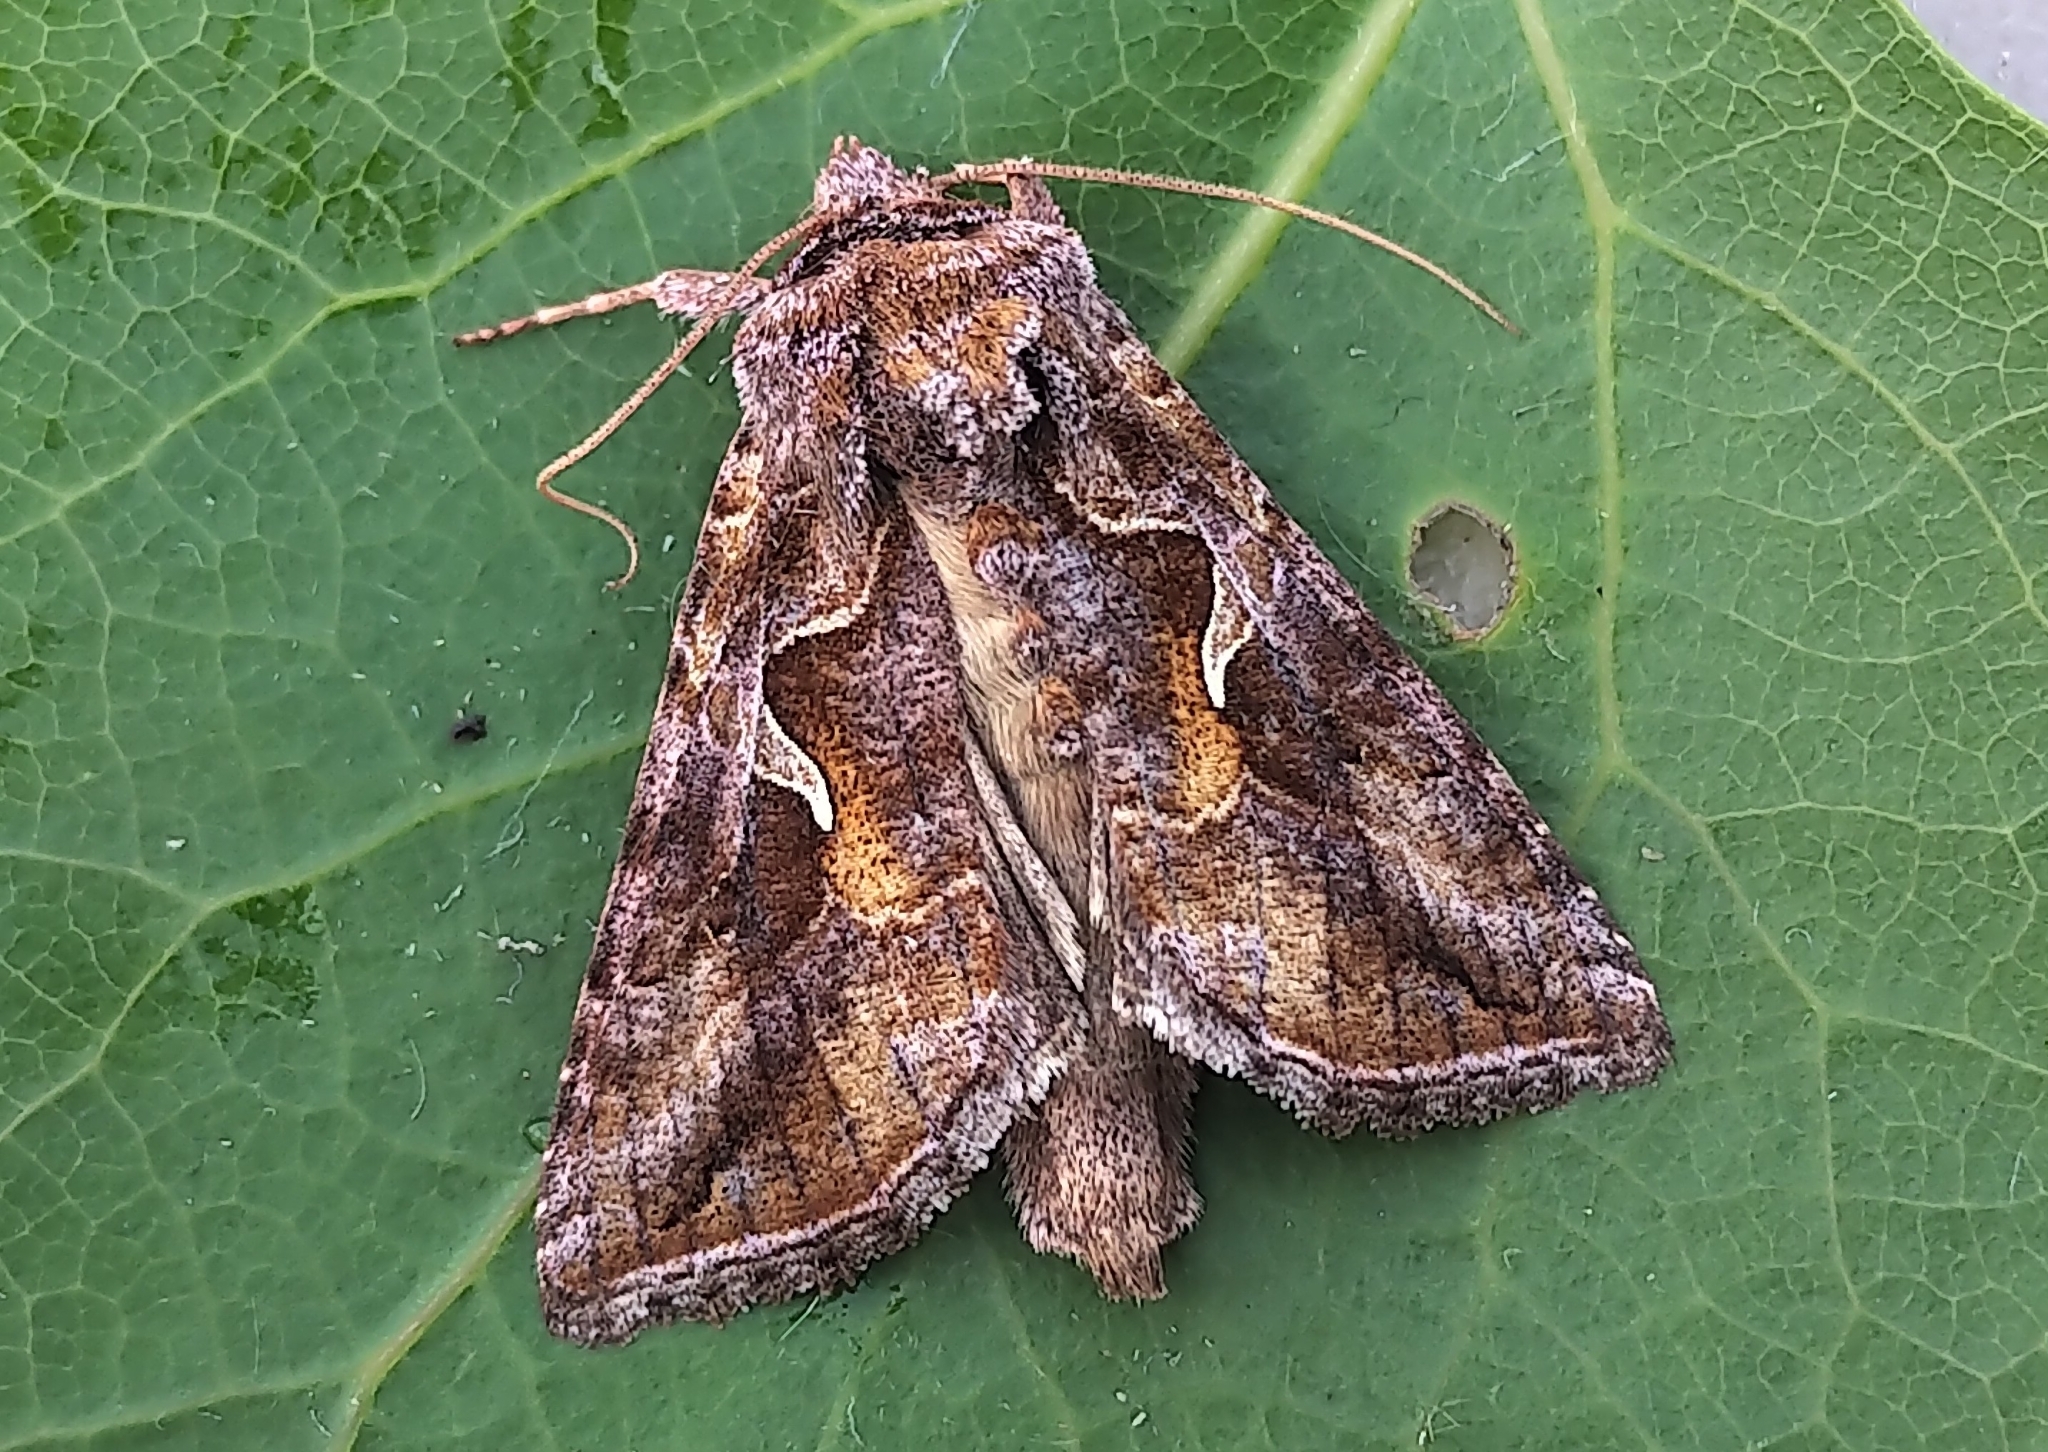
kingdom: Animalia
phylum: Arthropoda
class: Insecta
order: Lepidoptera
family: Noctuidae
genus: Autographa
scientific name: Autographa rubidus
